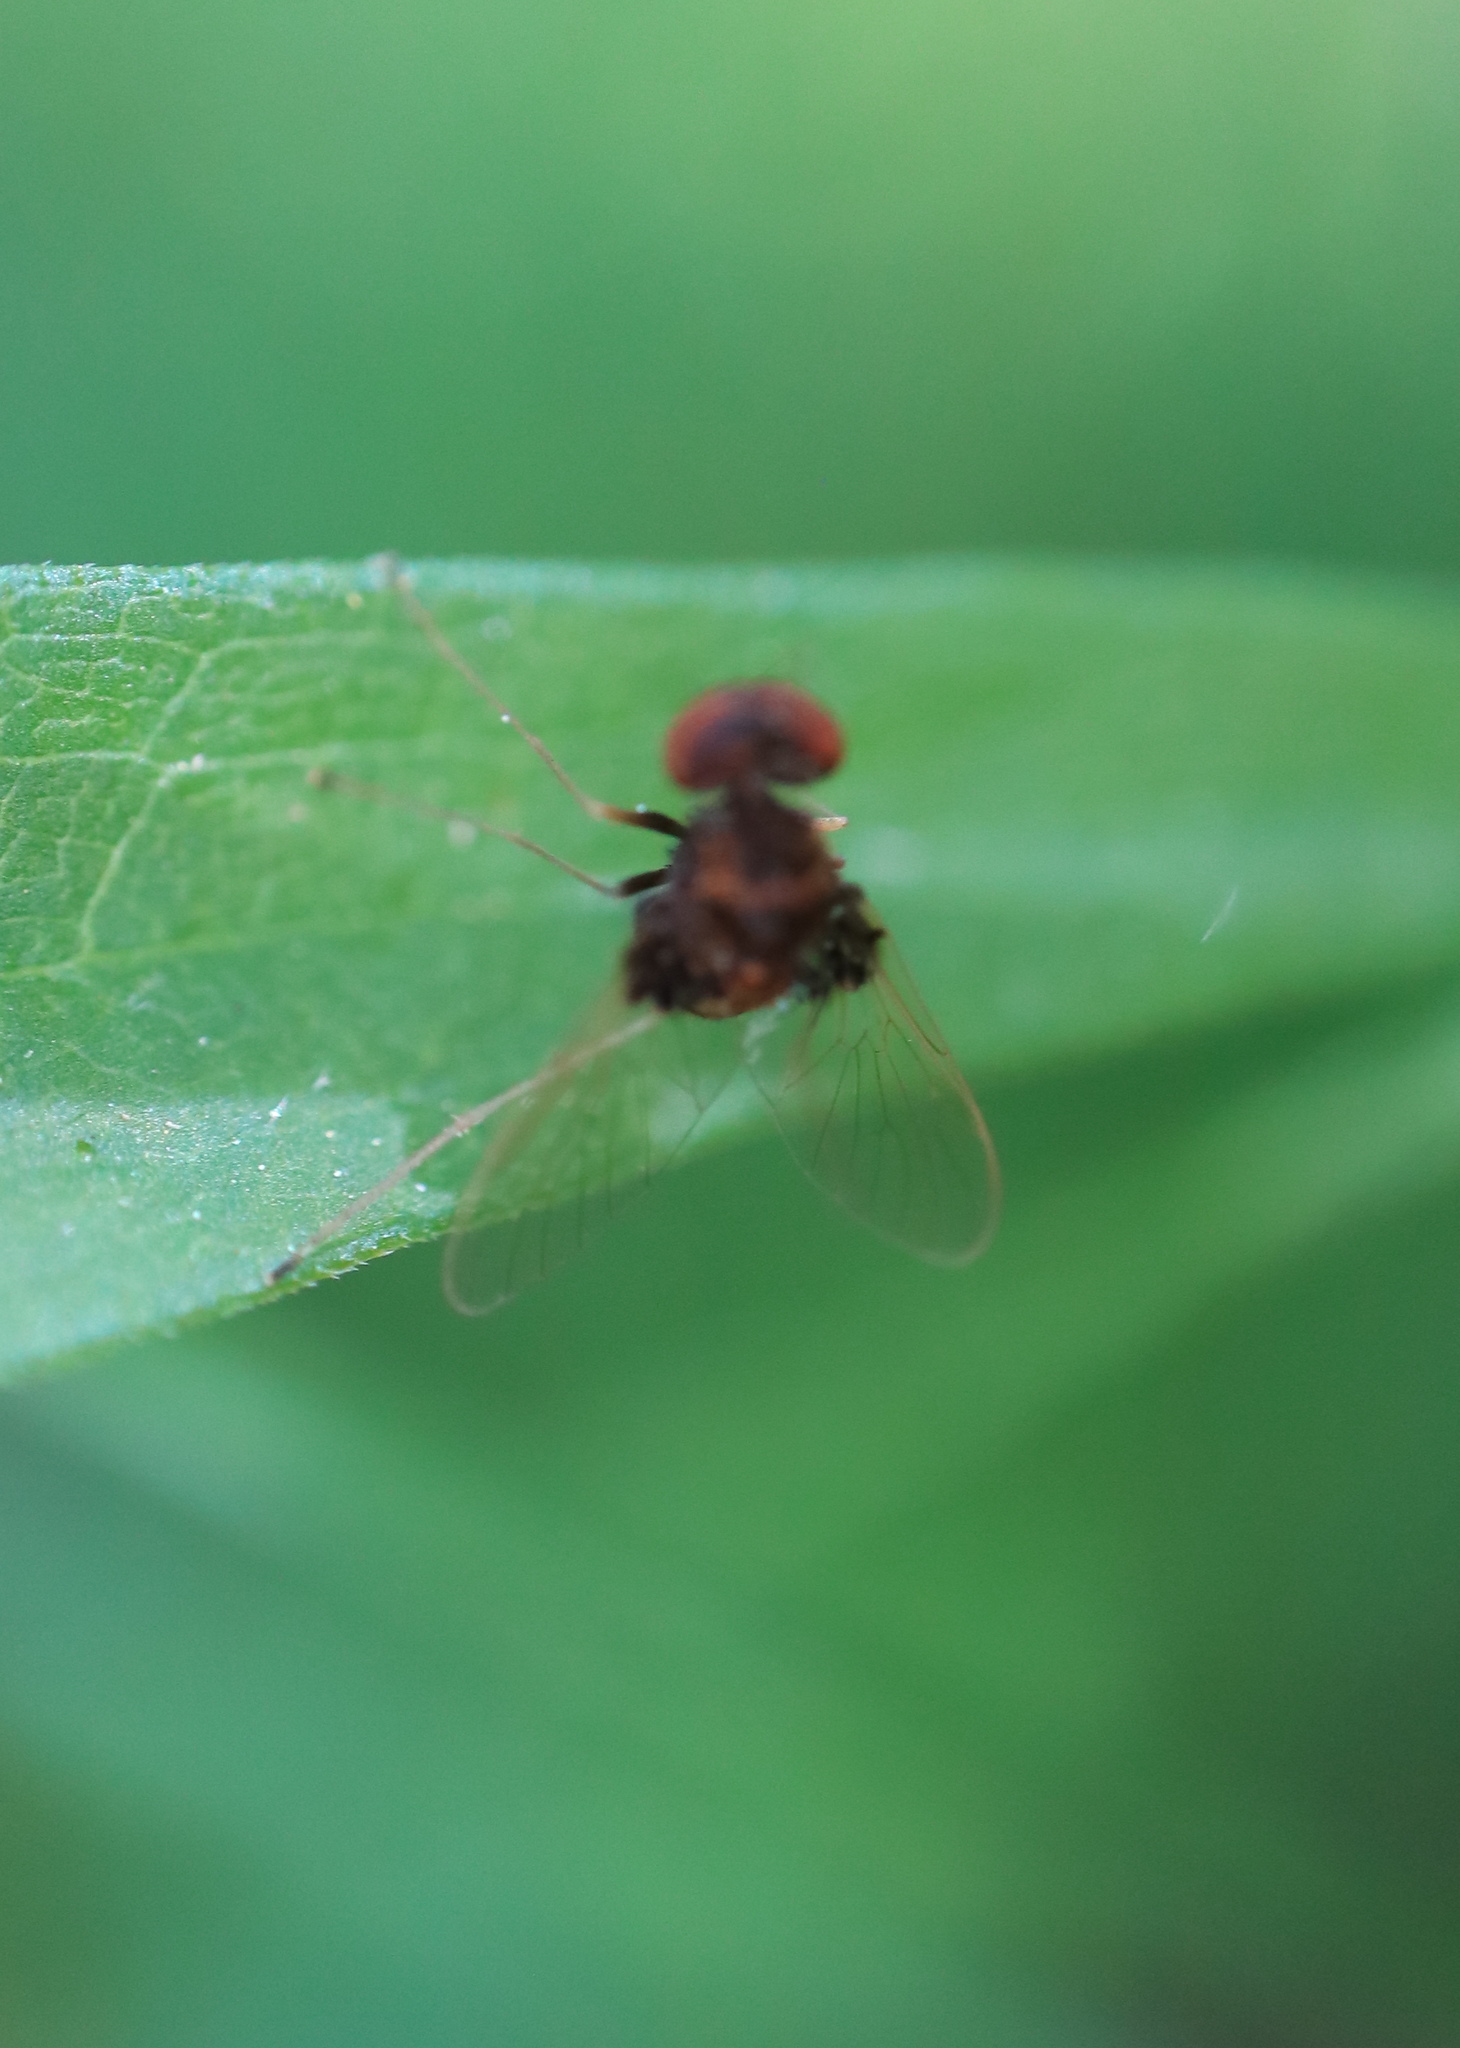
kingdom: Animalia
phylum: Arthropoda
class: Insecta
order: Diptera
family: Rhagionidae
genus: Chrysopilus
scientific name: Chrysopilus basilaris
